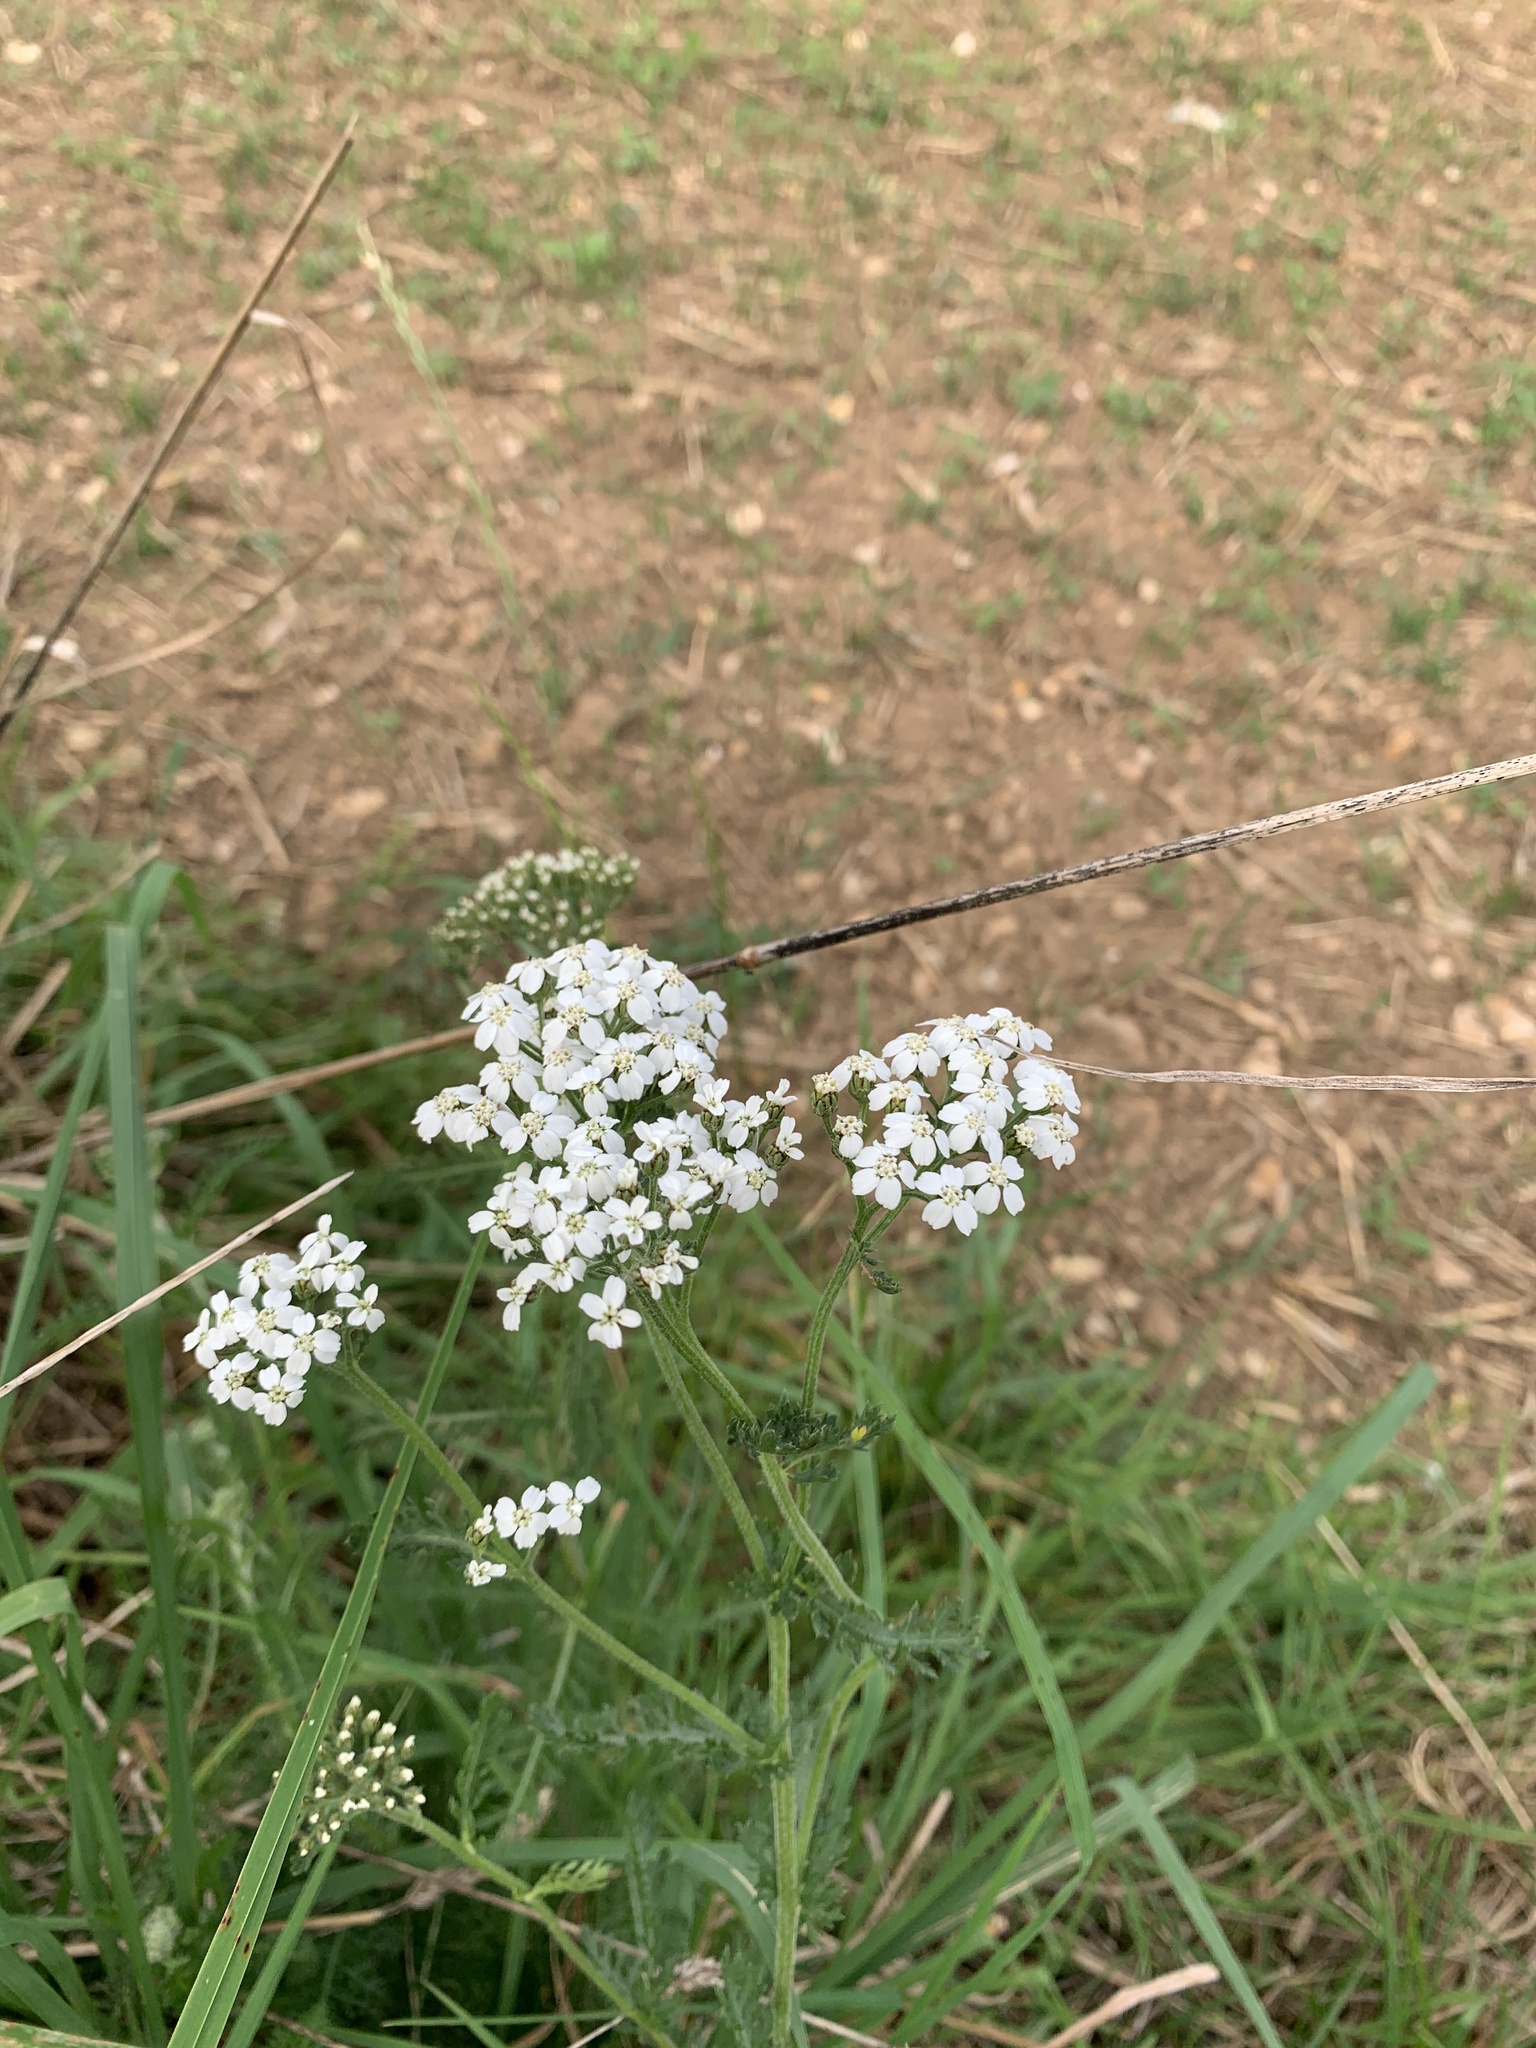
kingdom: Plantae
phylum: Tracheophyta
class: Magnoliopsida
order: Asterales
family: Asteraceae
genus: Achillea
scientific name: Achillea millefolium
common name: Yarrow
